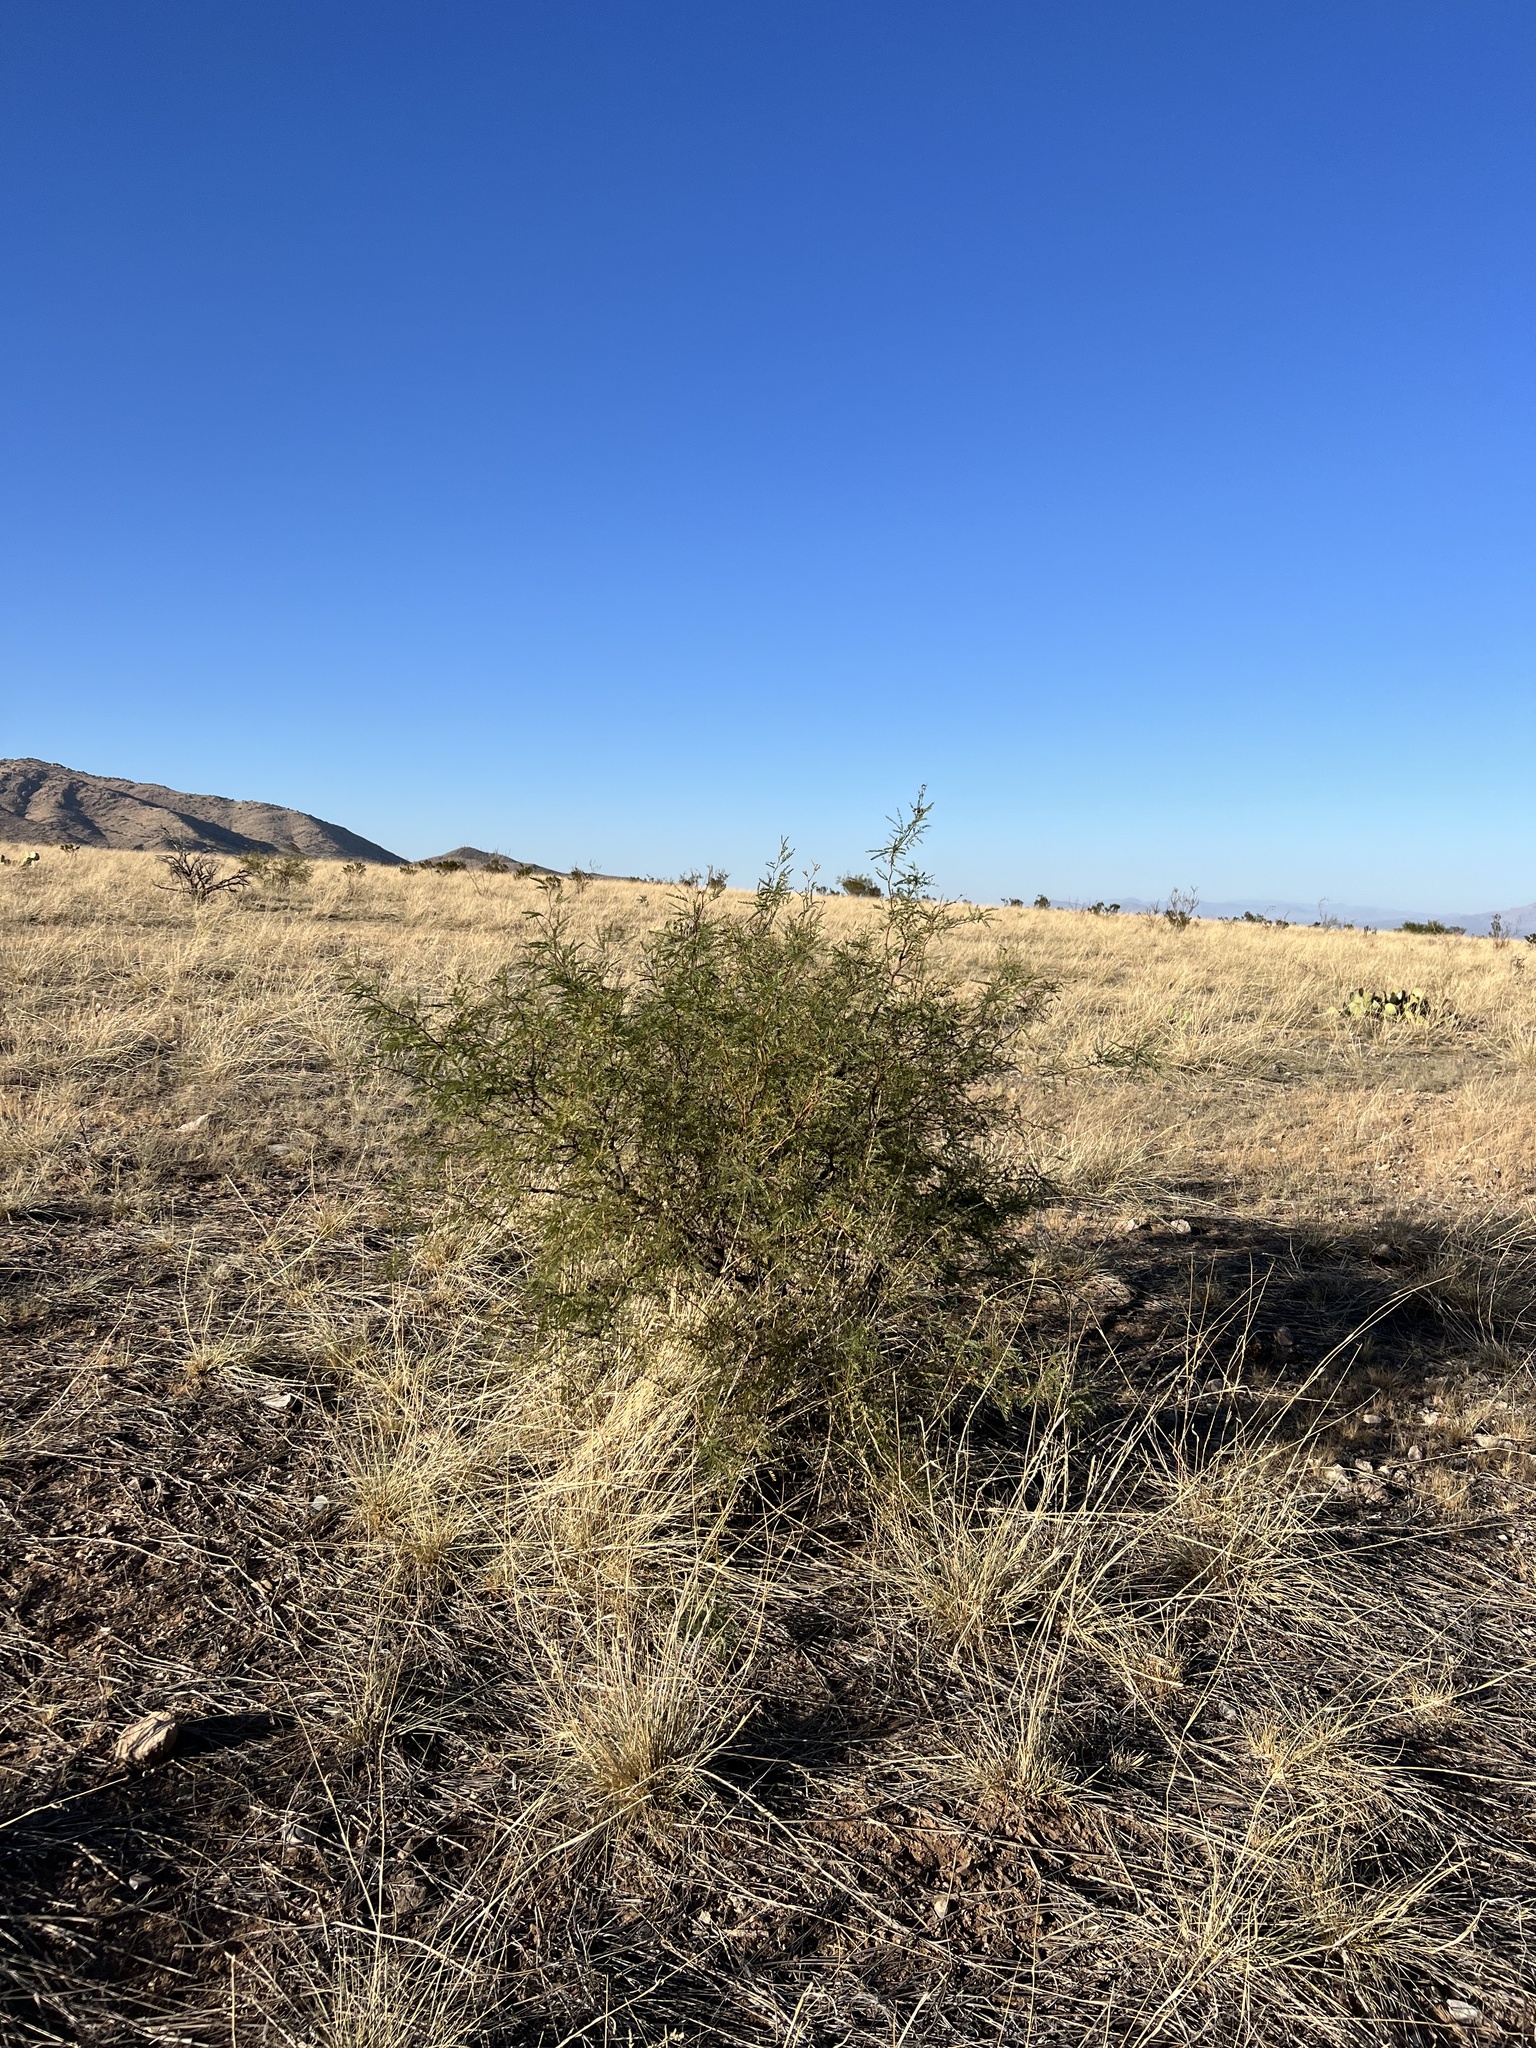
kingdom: Plantae
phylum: Tracheophyta
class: Magnoliopsida
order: Zygophyllales
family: Zygophyllaceae
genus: Larrea
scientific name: Larrea tridentata
